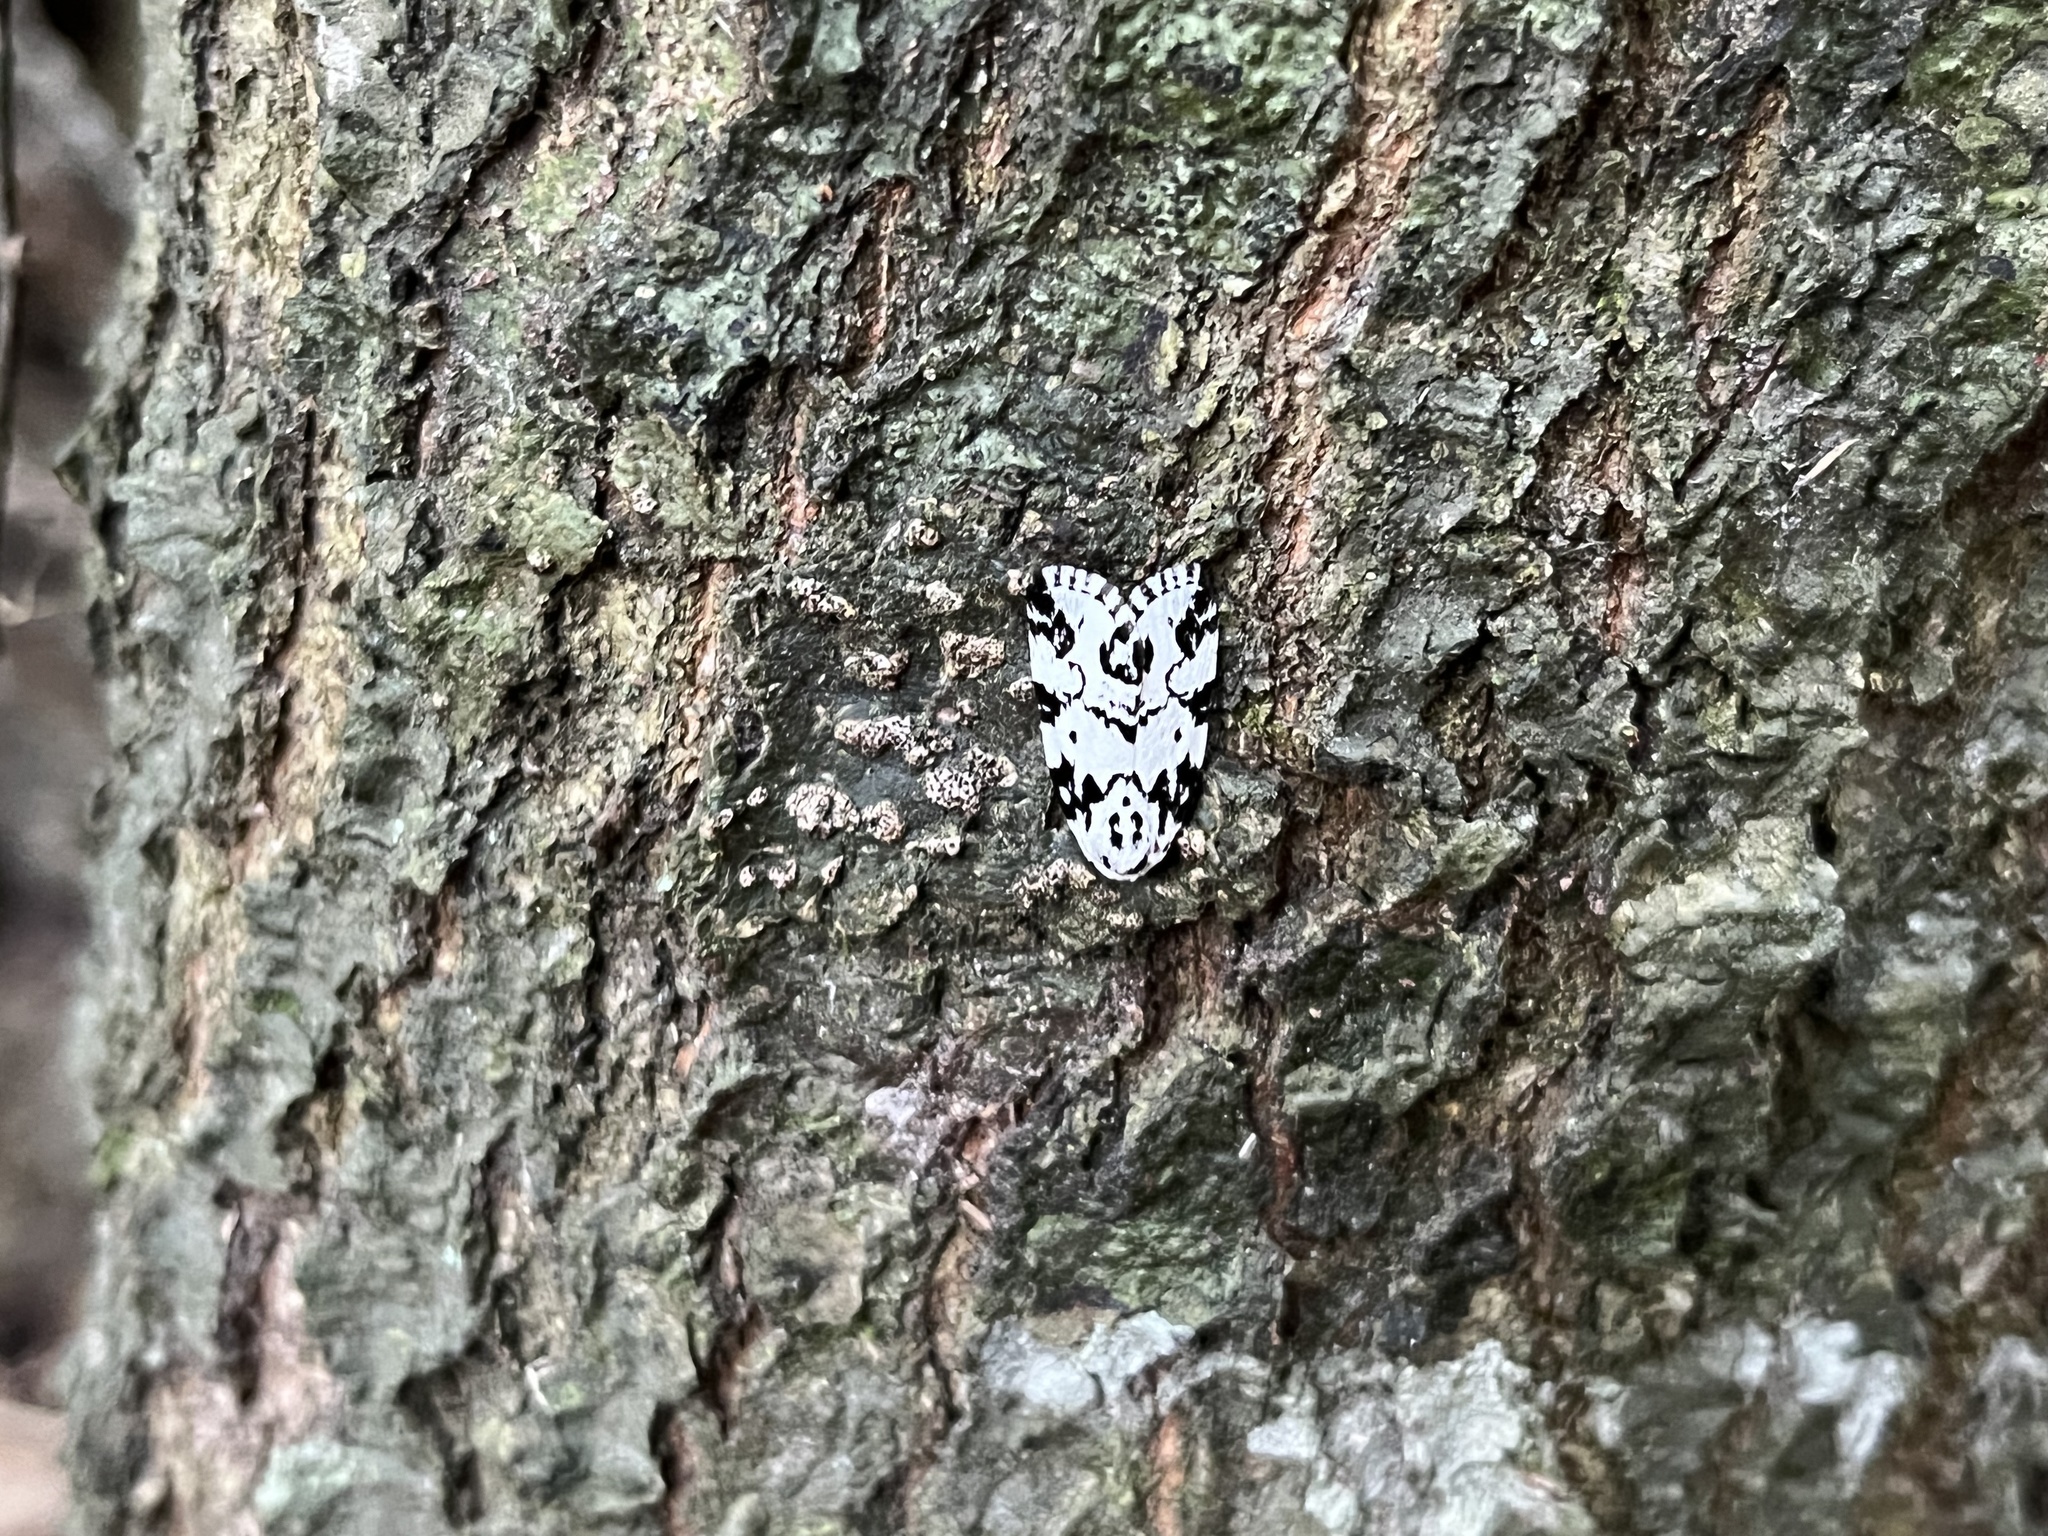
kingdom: Animalia
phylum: Arthropoda
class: Insecta
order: Lepidoptera
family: Noctuidae
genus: Polygrammate
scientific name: Polygrammate hebraeicum
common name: Hebrew moth
